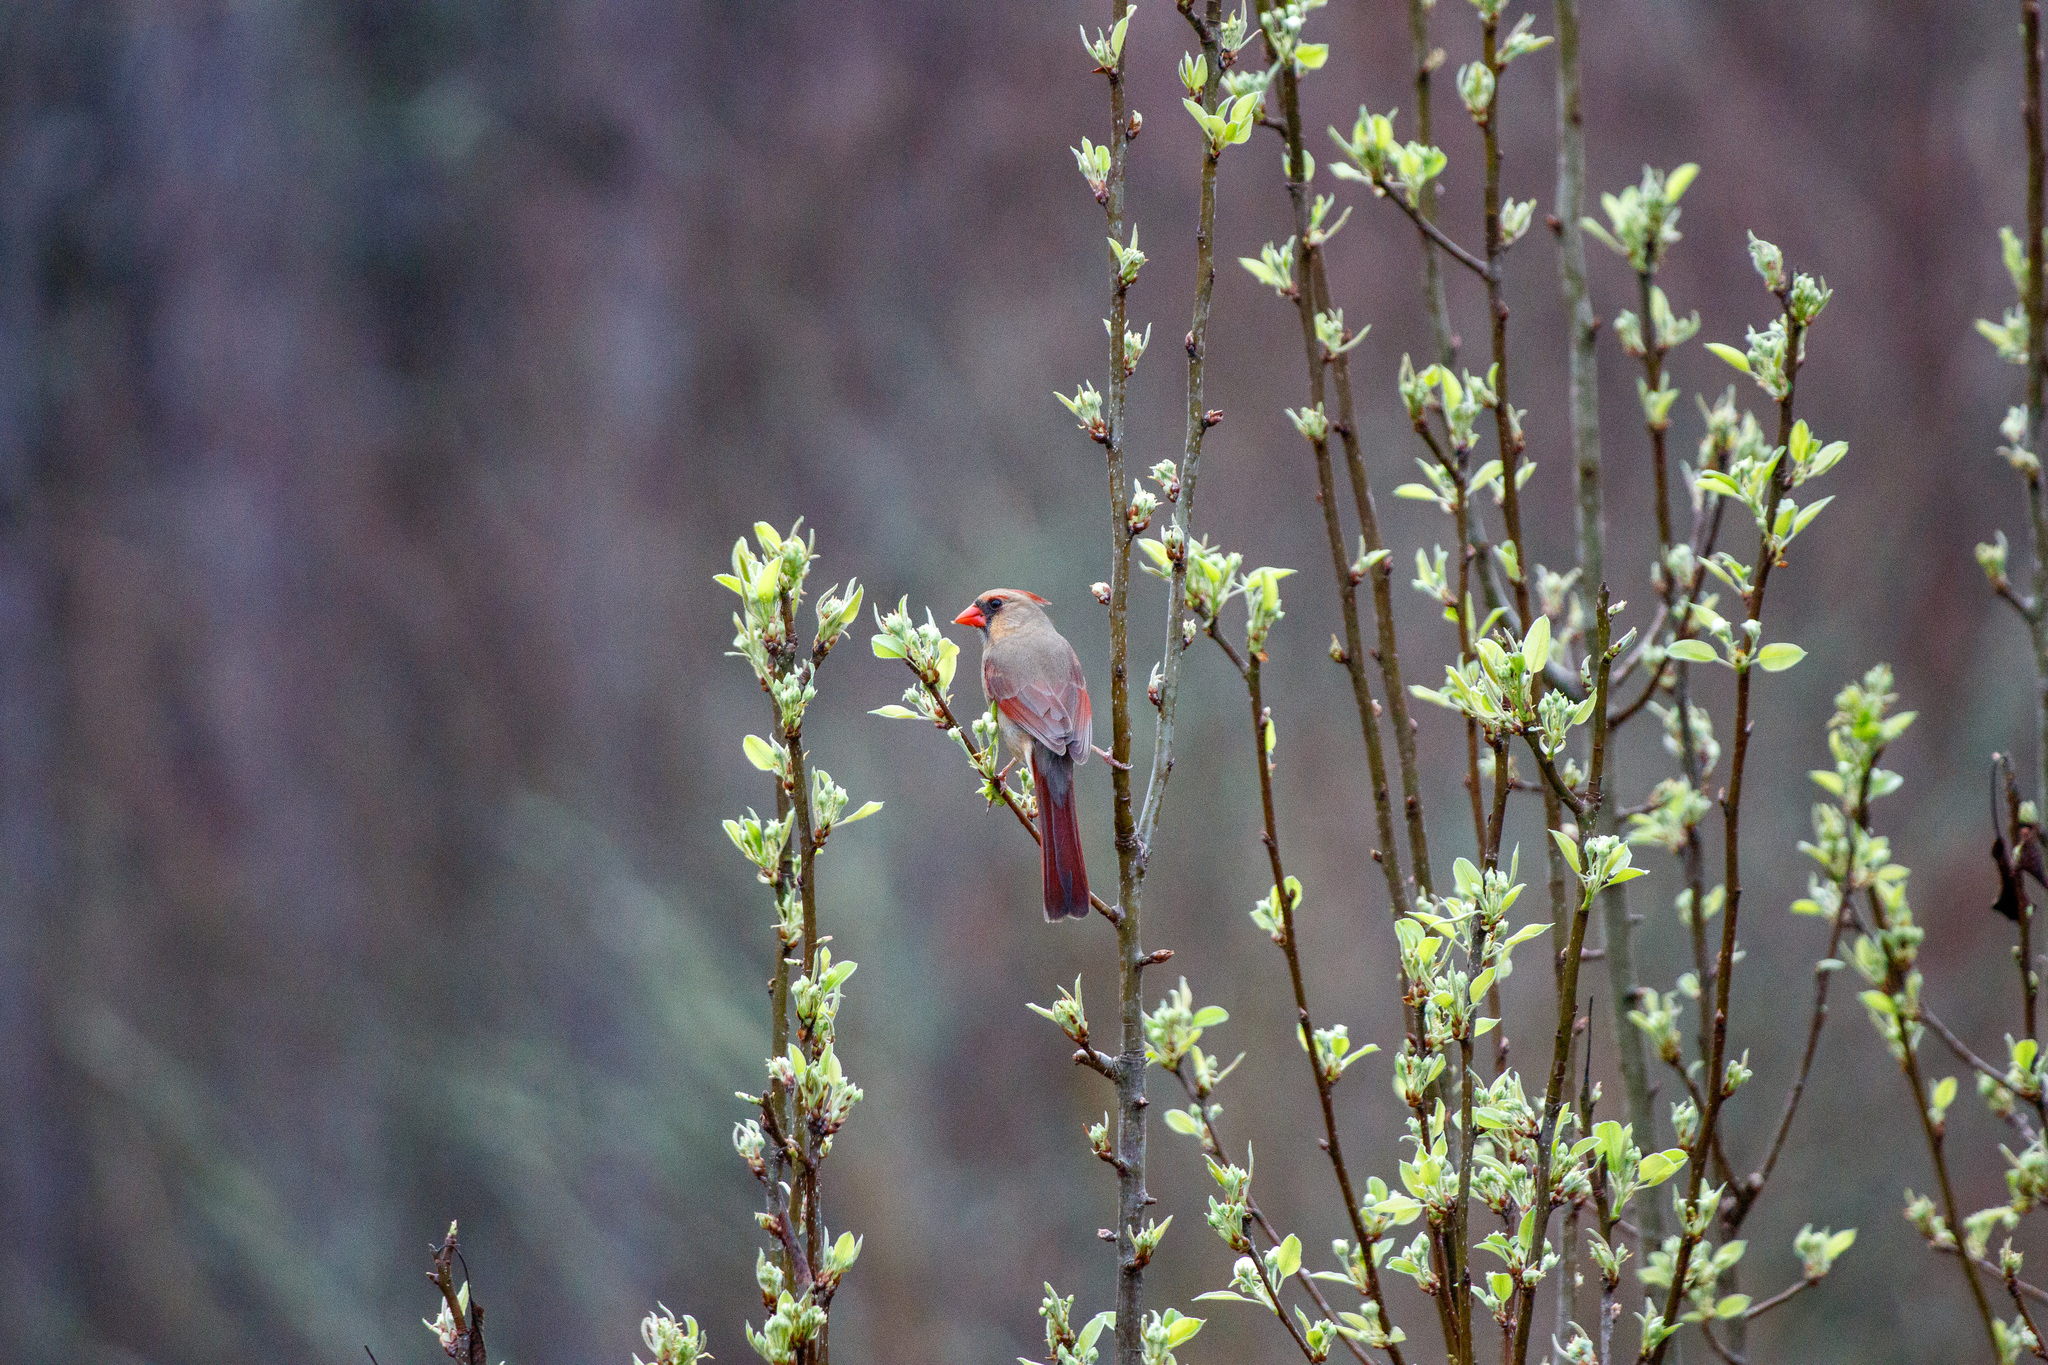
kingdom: Animalia
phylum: Chordata
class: Aves
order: Passeriformes
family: Cardinalidae
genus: Cardinalis
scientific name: Cardinalis cardinalis
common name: Northern cardinal
